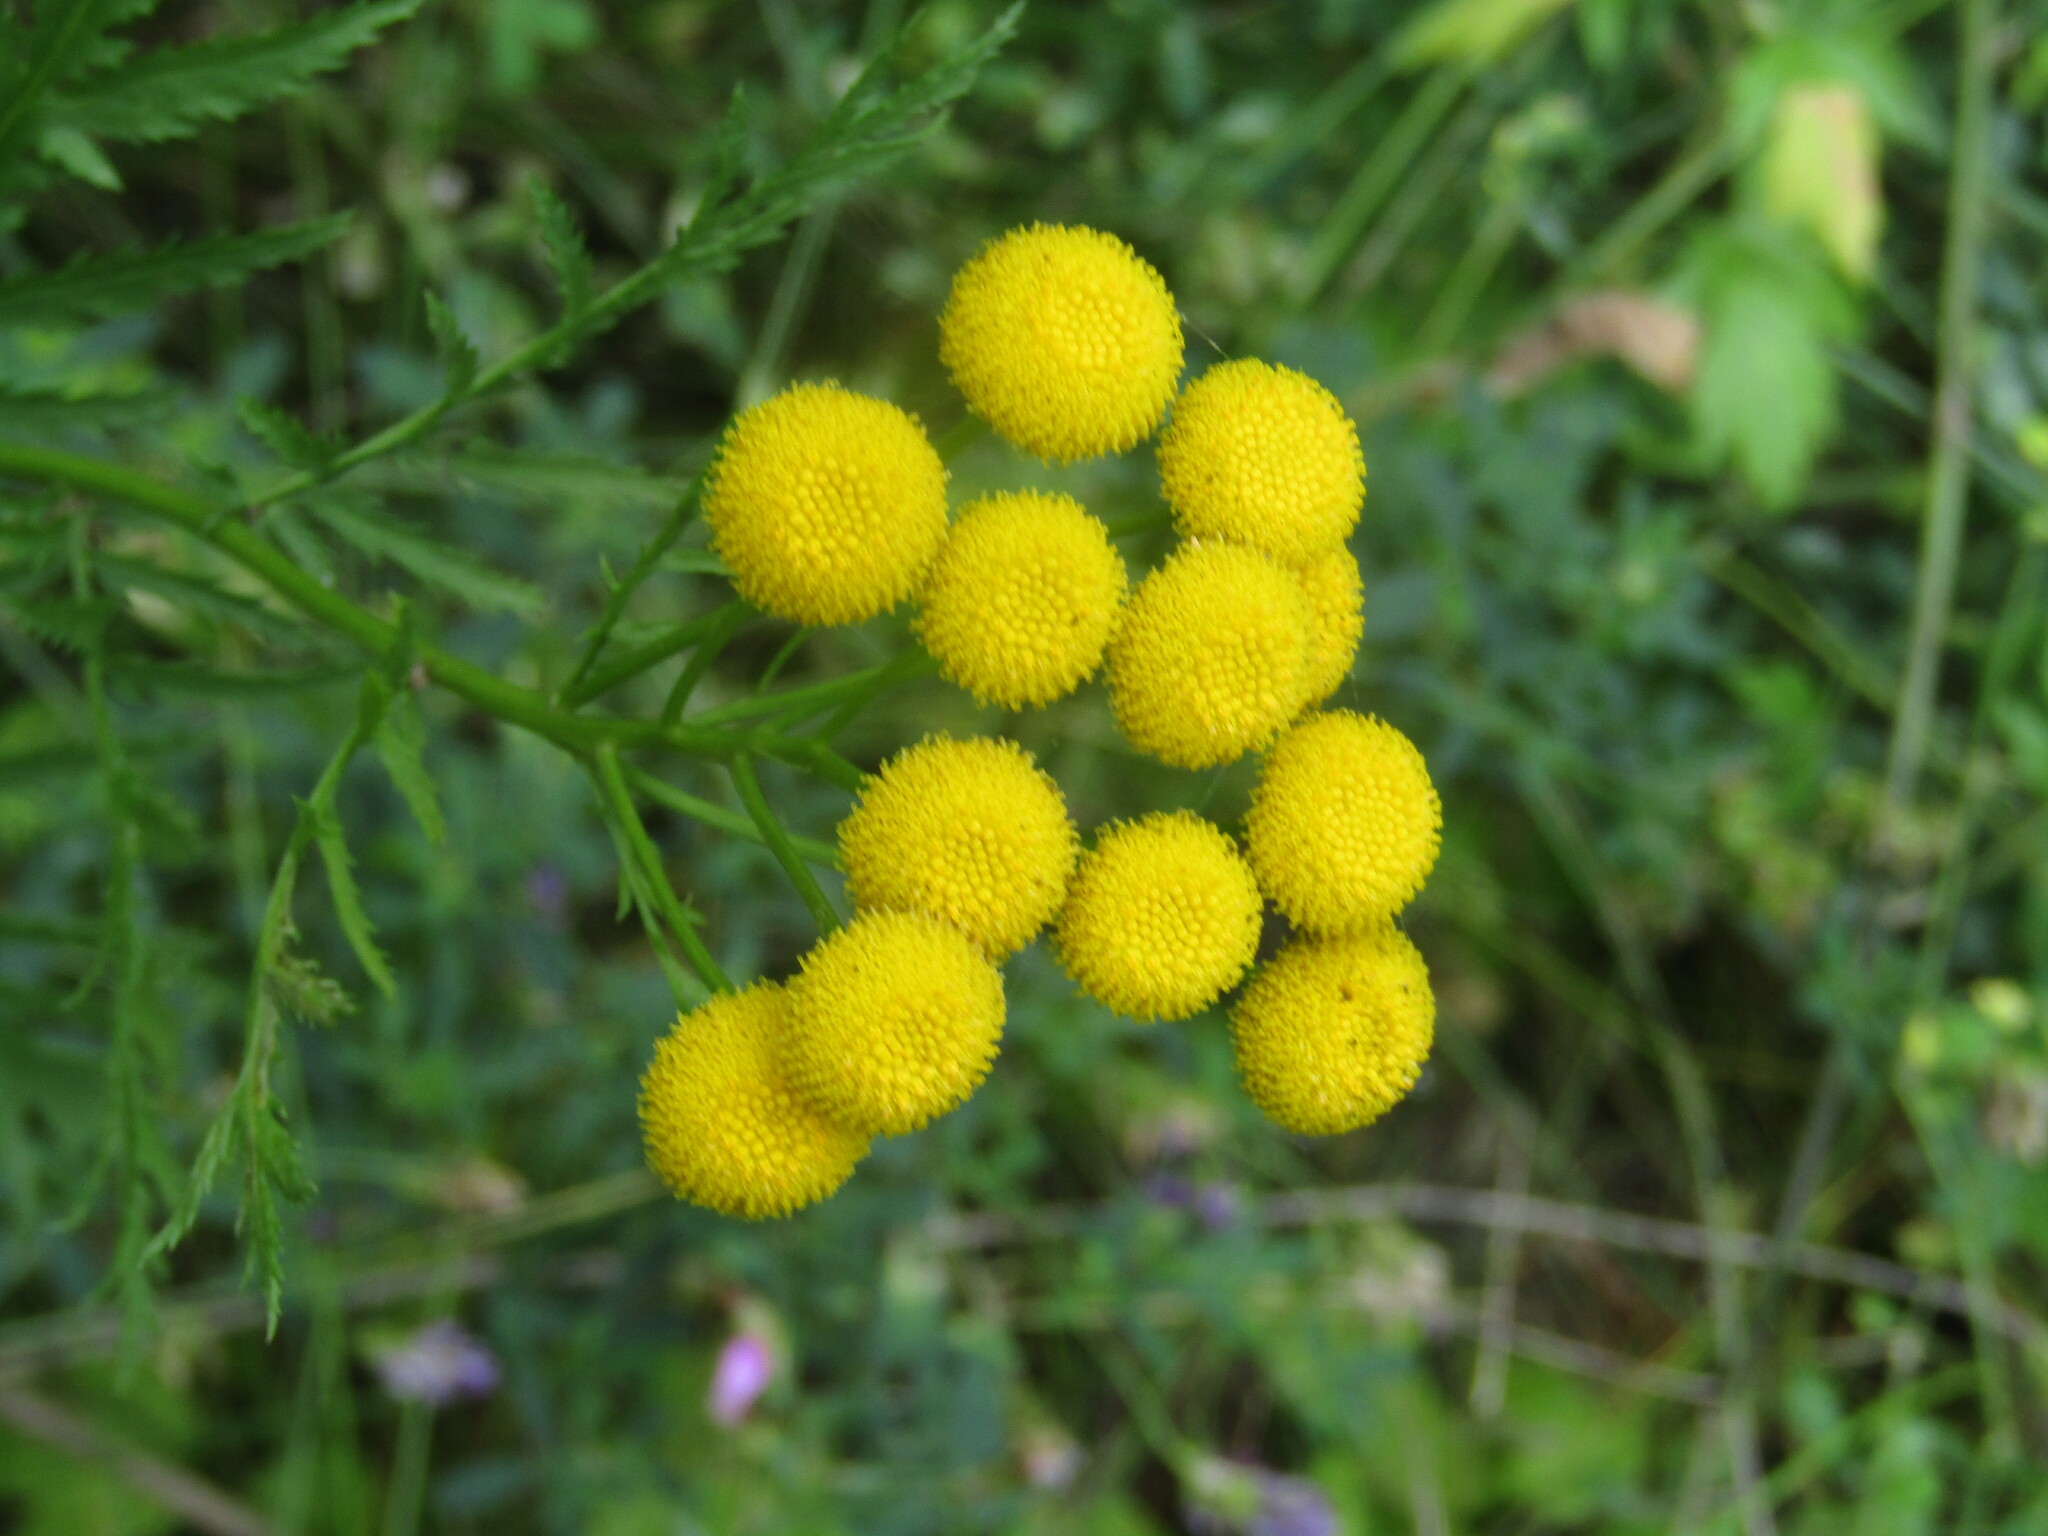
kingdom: Plantae
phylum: Tracheophyta
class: Magnoliopsida
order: Asterales
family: Asteraceae
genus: Tanacetum
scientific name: Tanacetum vulgare
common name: Common tansy
